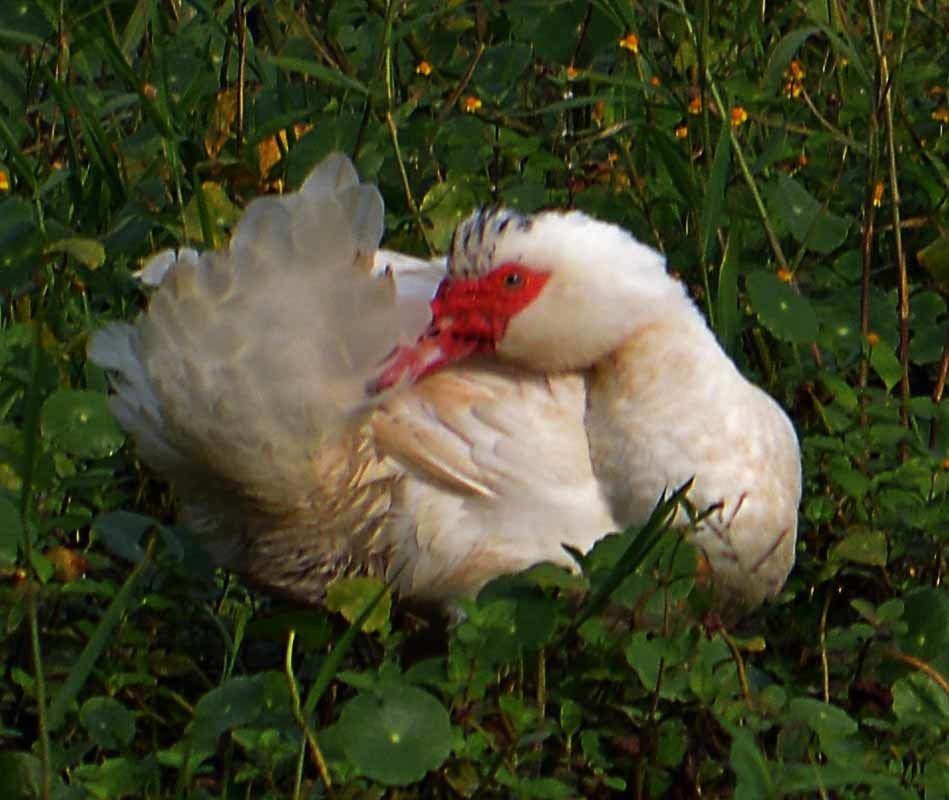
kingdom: Animalia
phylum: Chordata
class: Aves
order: Anseriformes
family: Anatidae
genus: Cairina
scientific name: Cairina moschata
